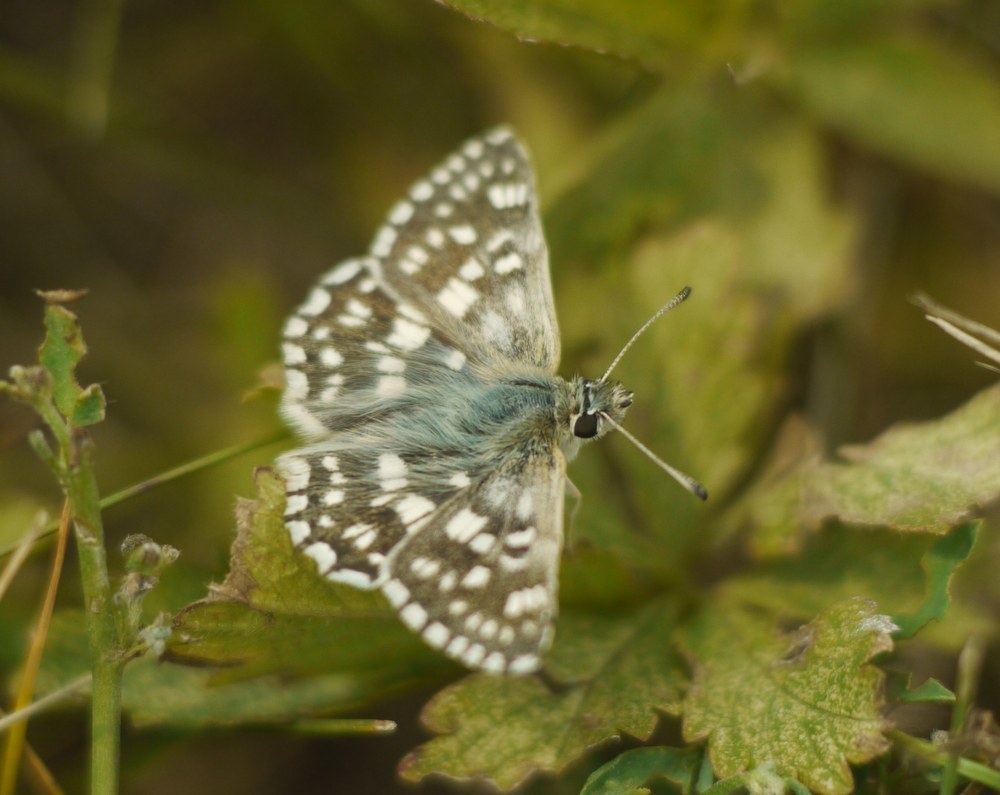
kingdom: Animalia
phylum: Arthropoda
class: Insecta
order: Lepidoptera
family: Hesperiidae
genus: Syrichtus
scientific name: Syrichtus tessellum
